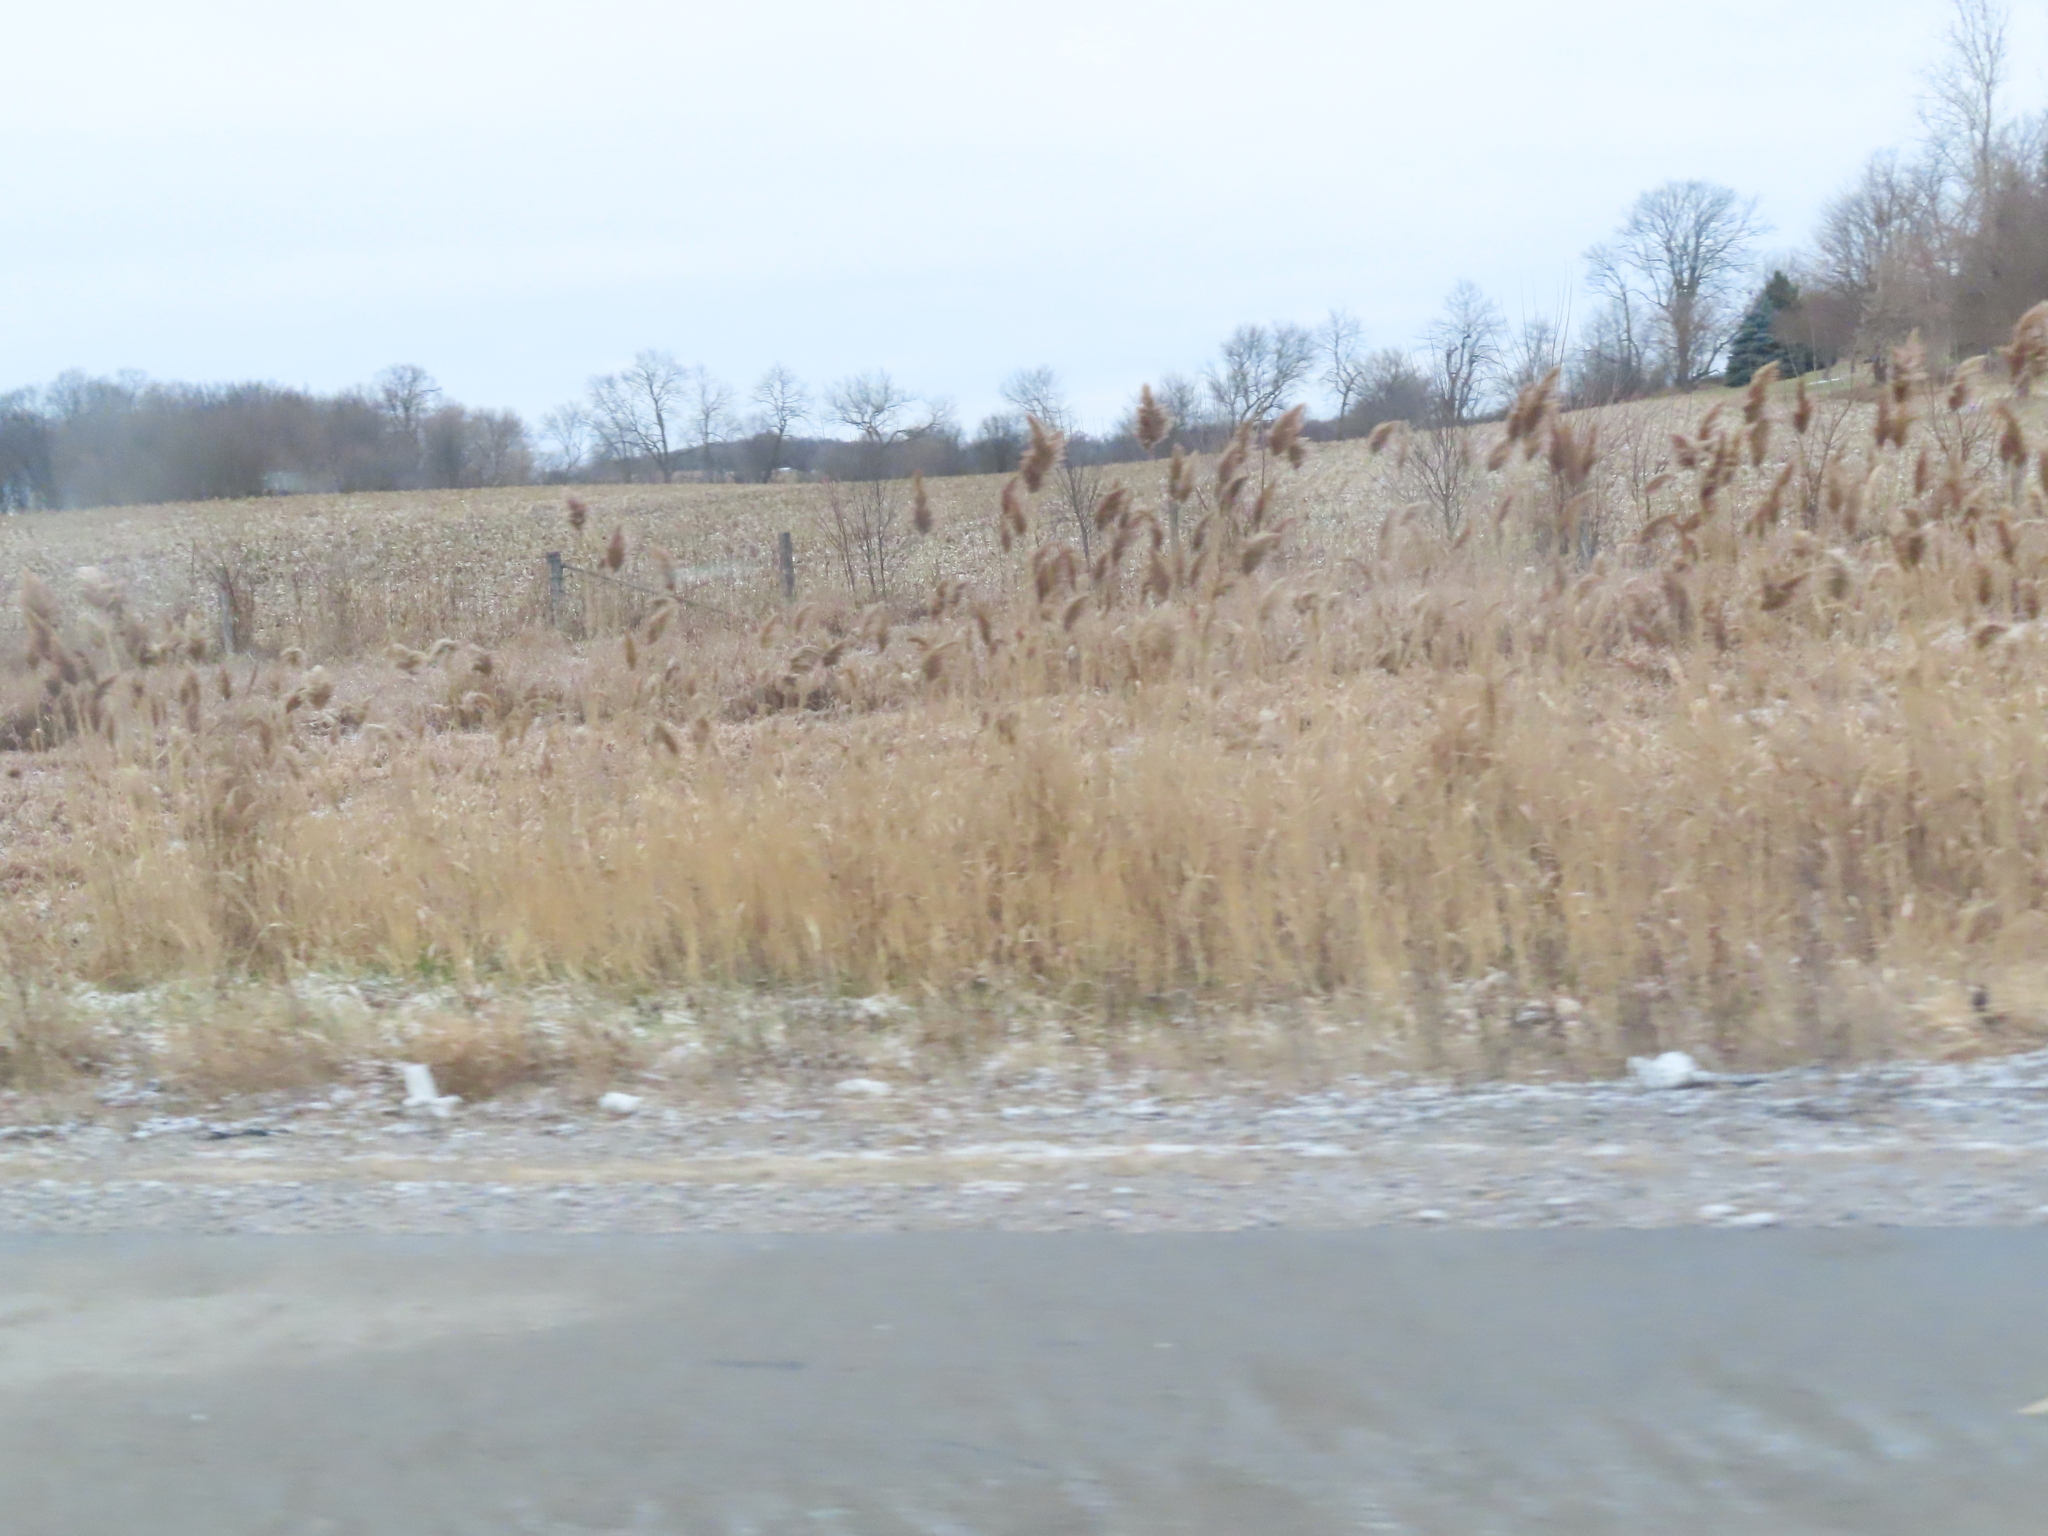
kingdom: Plantae
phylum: Tracheophyta
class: Liliopsida
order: Poales
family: Poaceae
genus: Phragmites
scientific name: Phragmites australis
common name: Common reed
